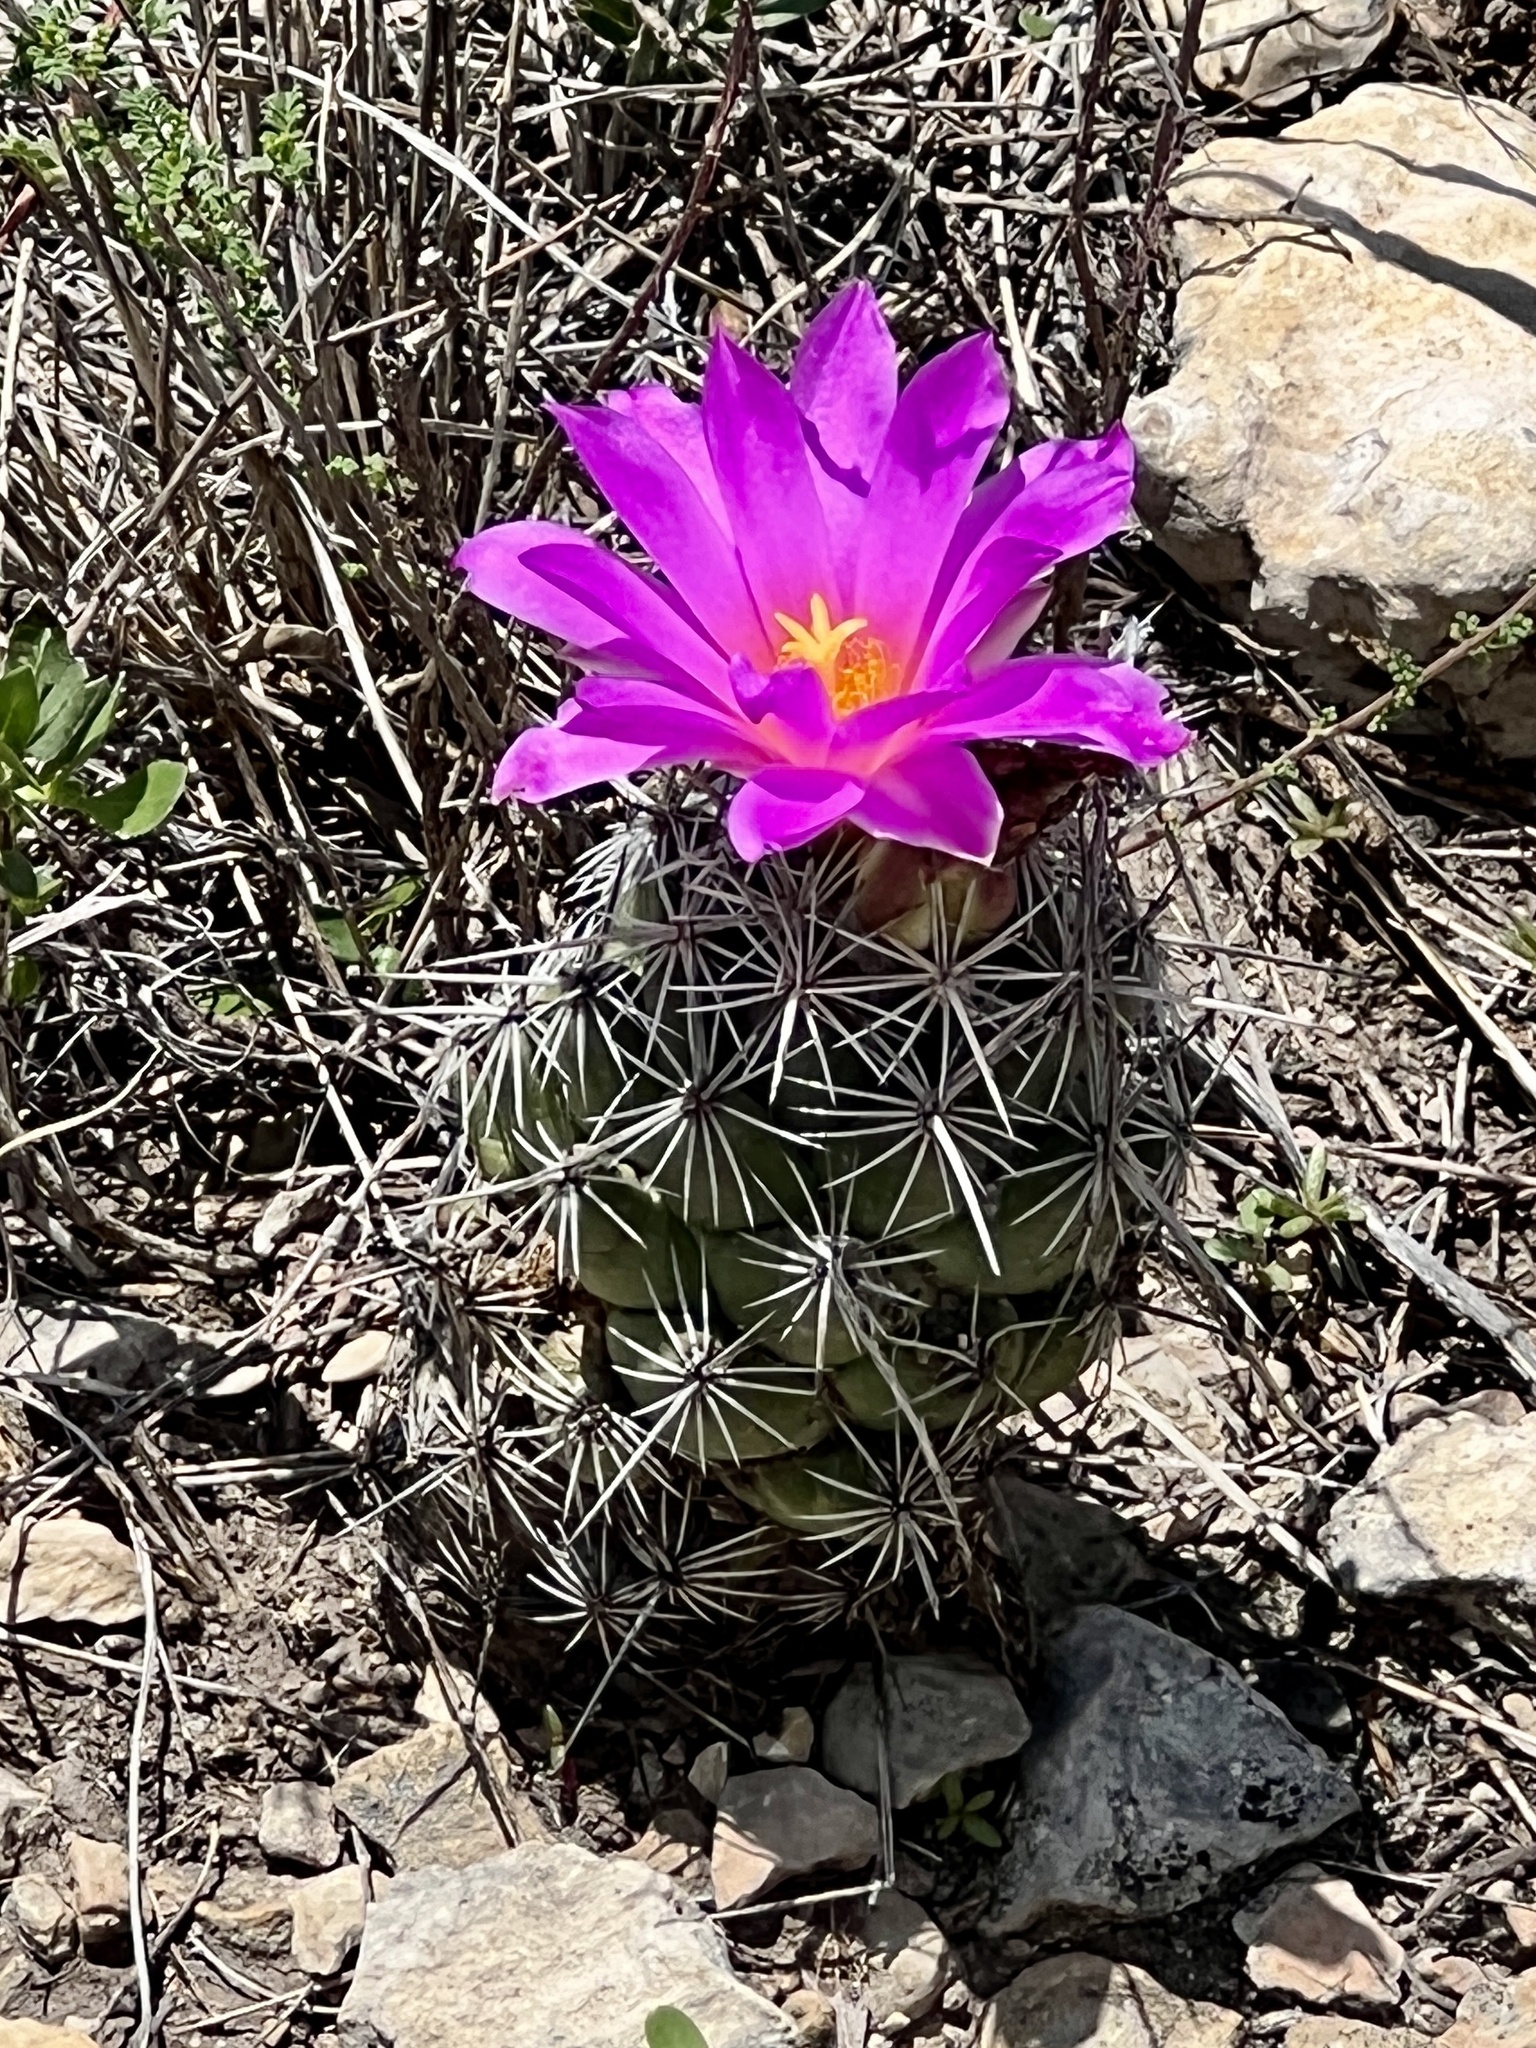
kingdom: Plantae
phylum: Tracheophyta
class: Magnoliopsida
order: Caryophyllales
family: Cactaceae
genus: Cochemiea
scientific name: Cochemiea conoidea
